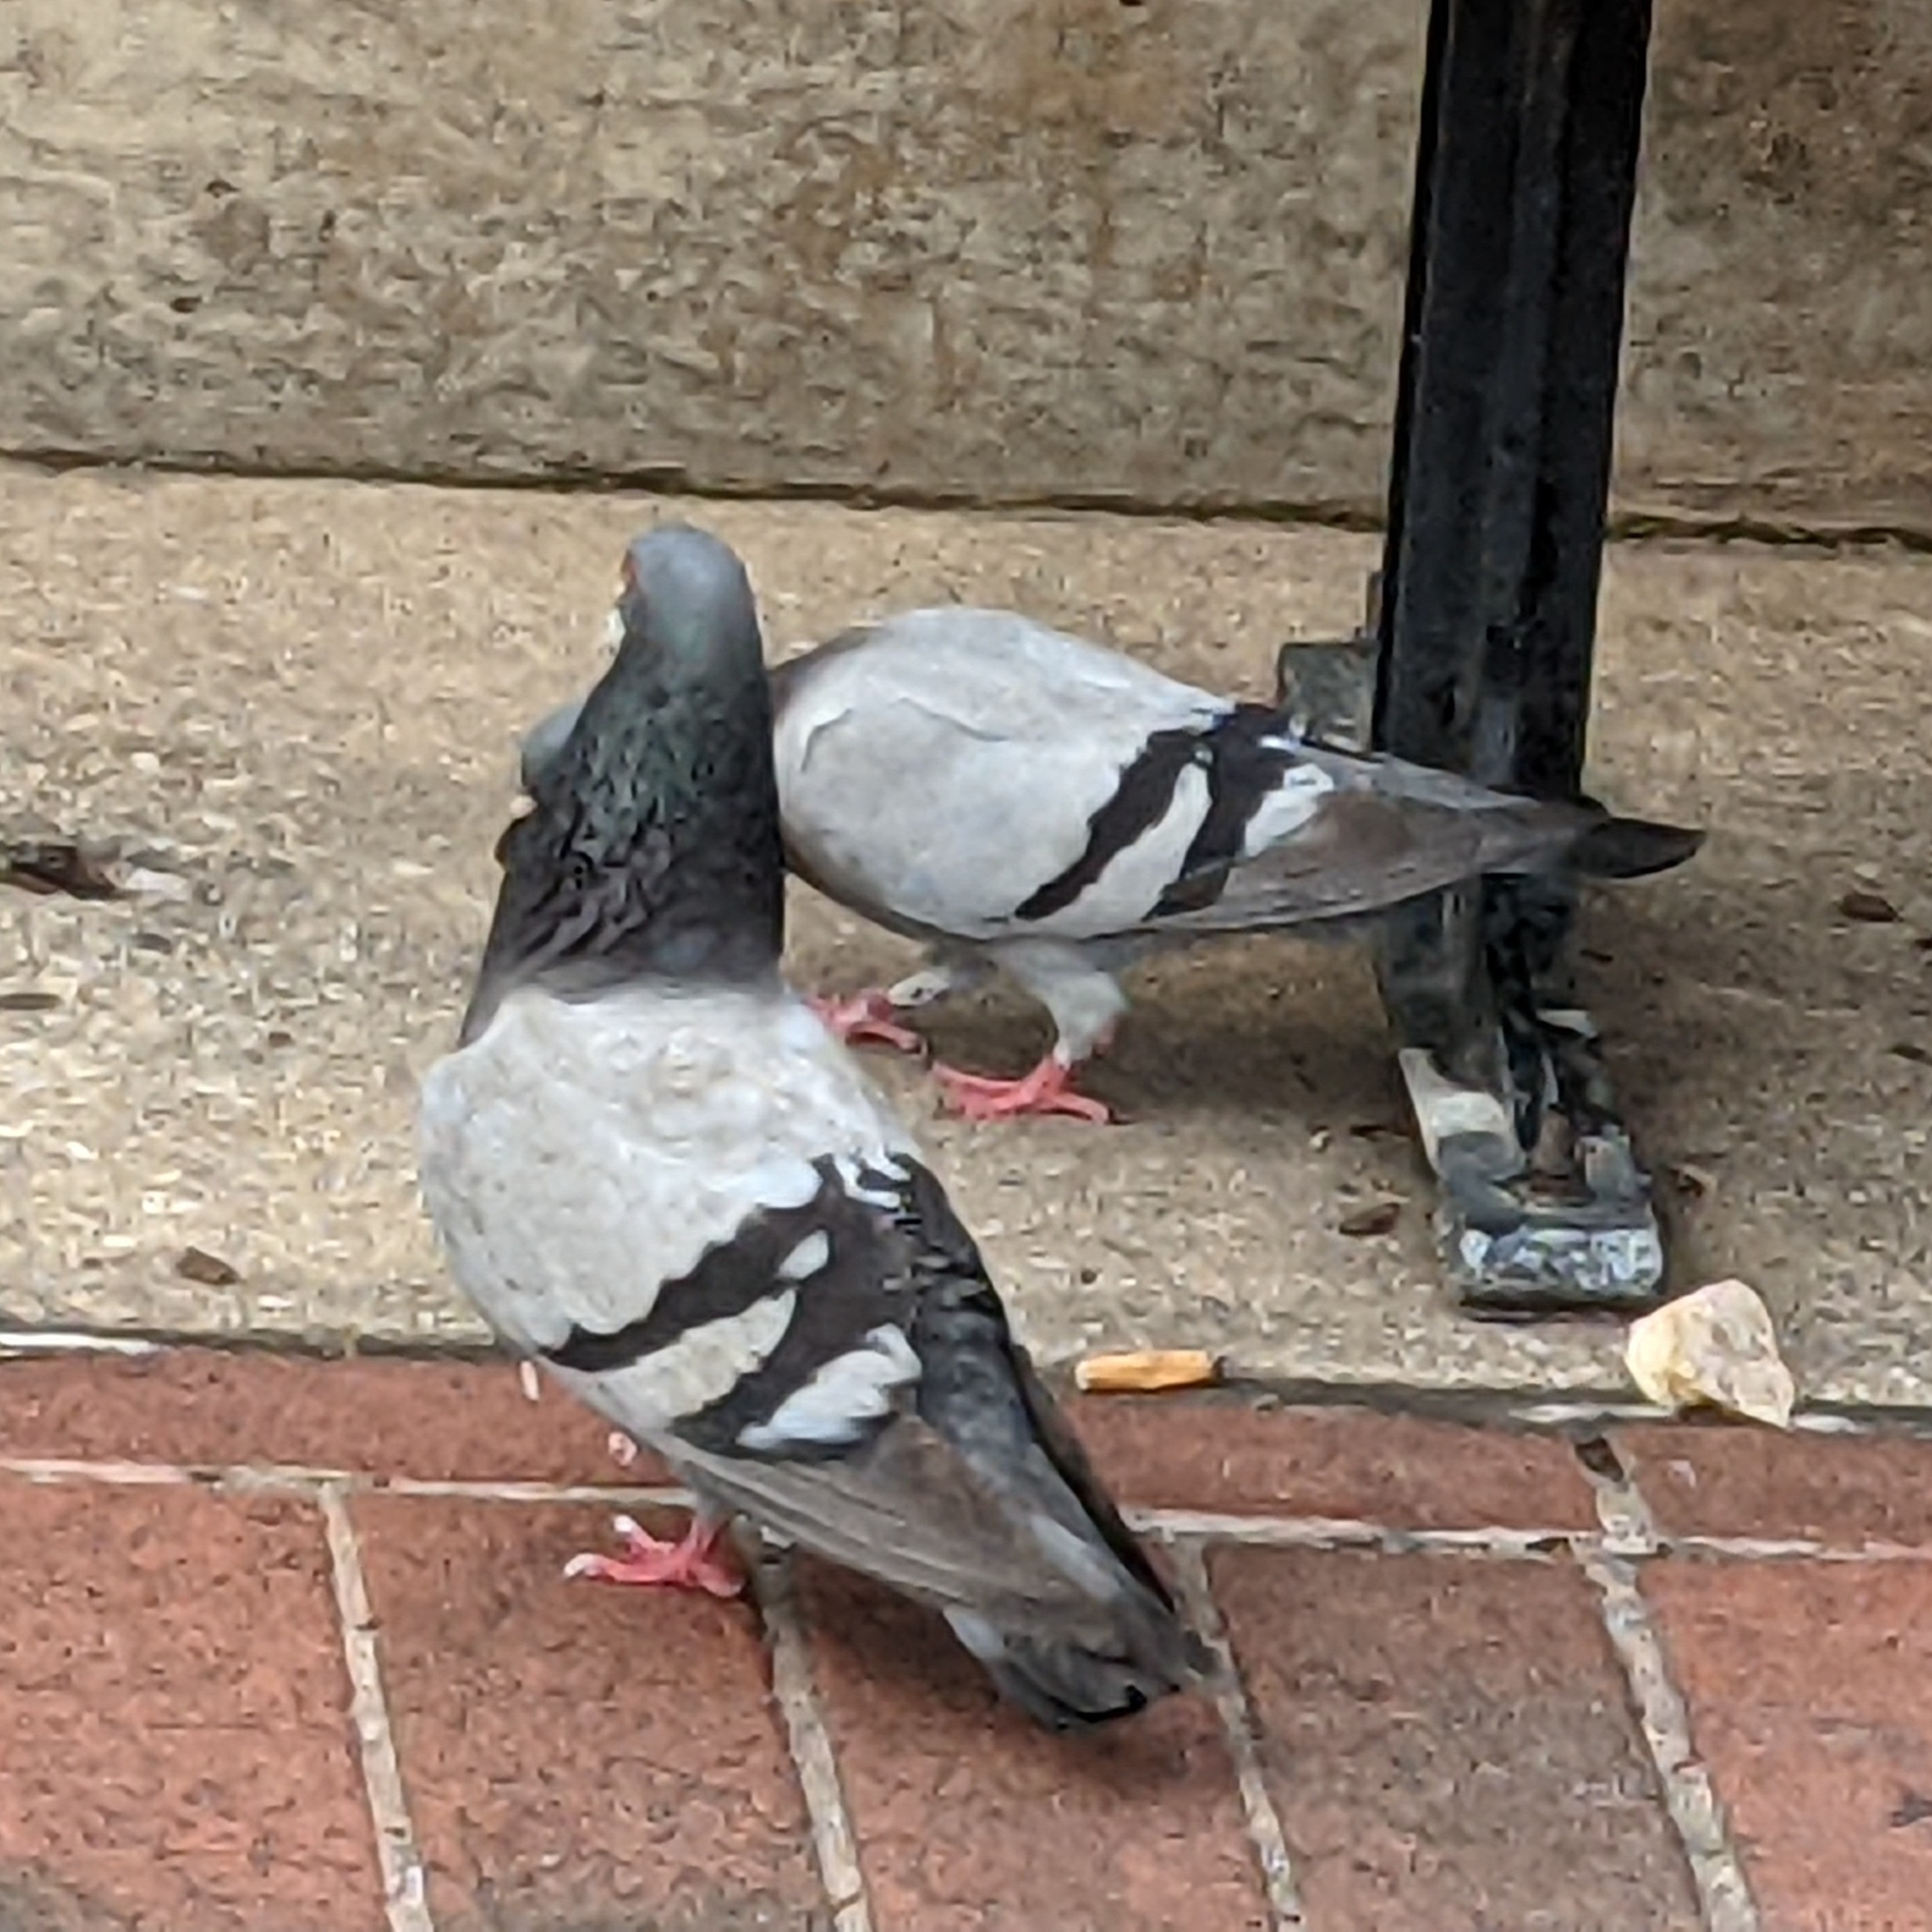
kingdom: Animalia
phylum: Chordata
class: Aves
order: Columbiformes
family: Columbidae
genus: Columba
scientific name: Columba livia
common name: Rock pigeon
